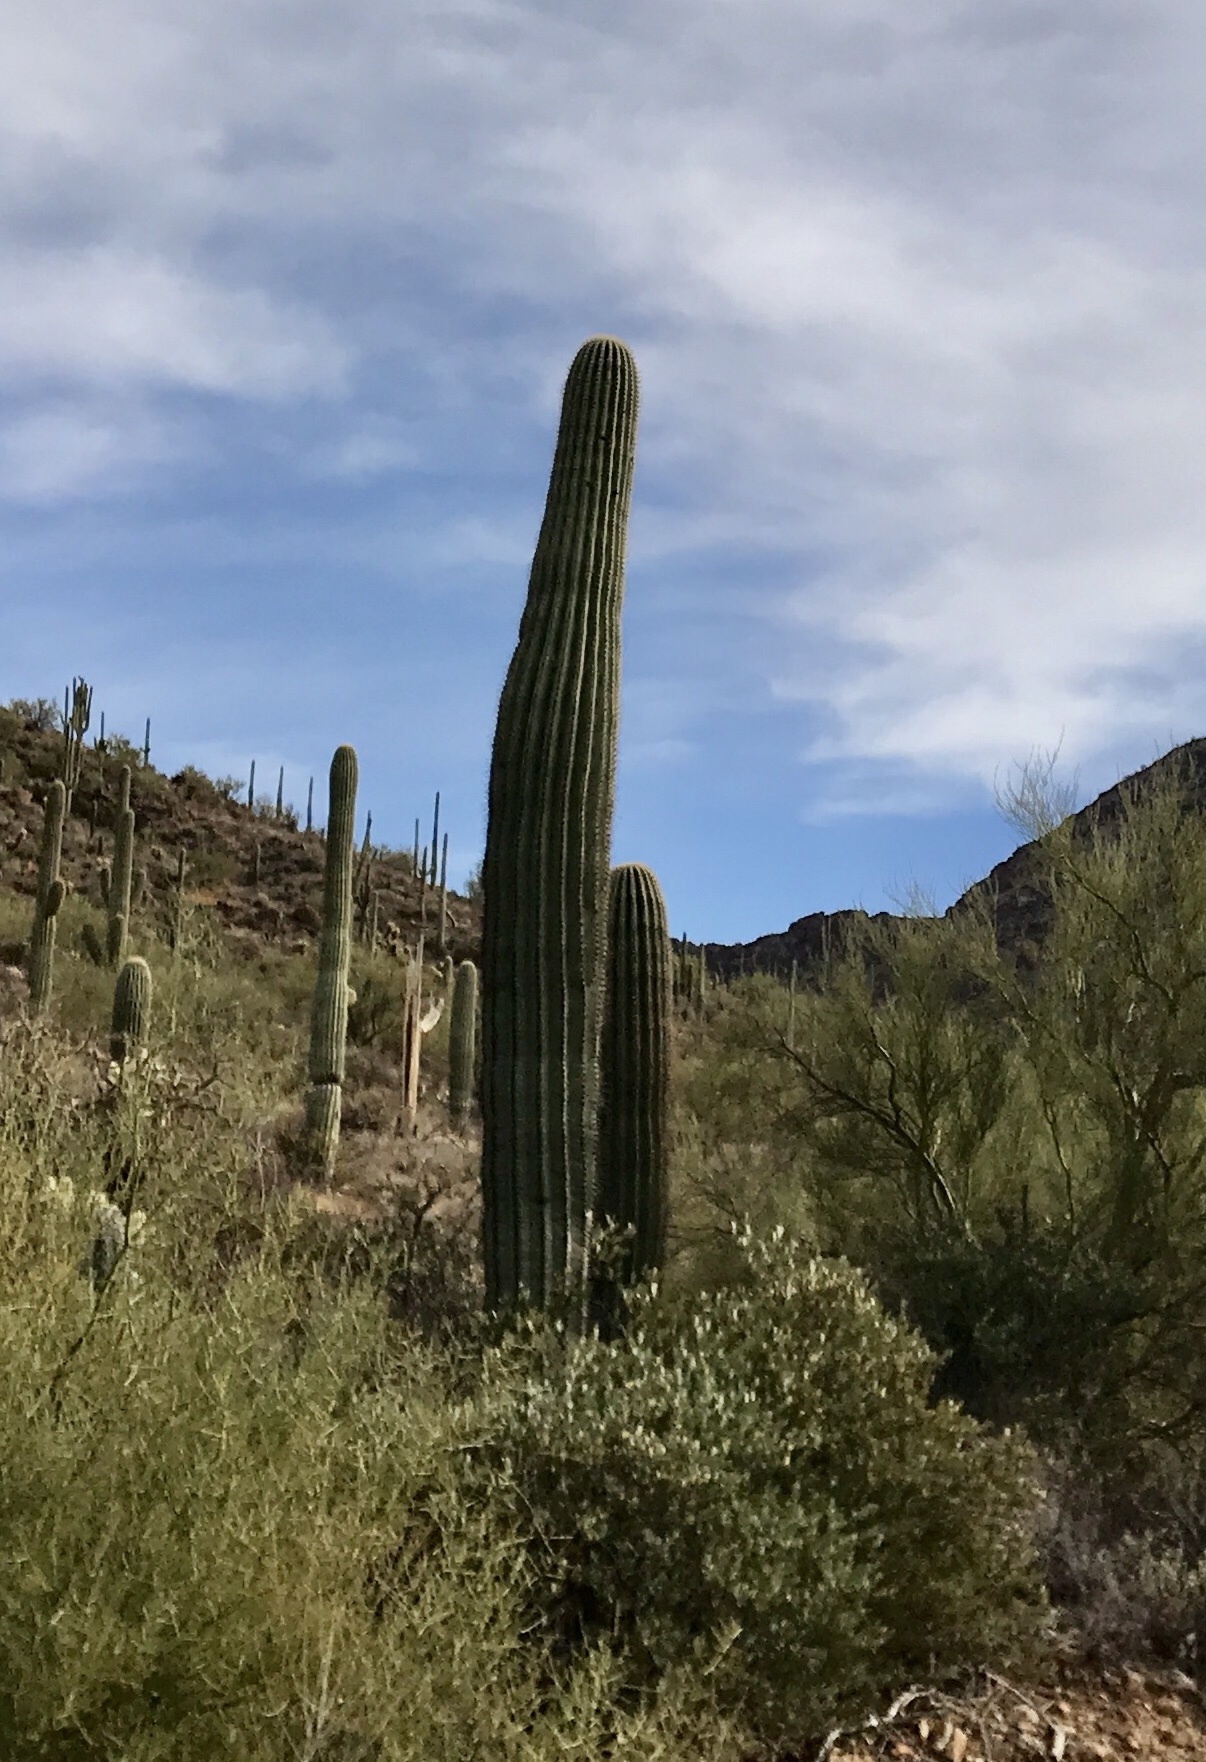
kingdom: Plantae
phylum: Tracheophyta
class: Magnoliopsida
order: Caryophyllales
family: Cactaceae
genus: Carnegiea
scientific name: Carnegiea gigantea
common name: Saguaro
